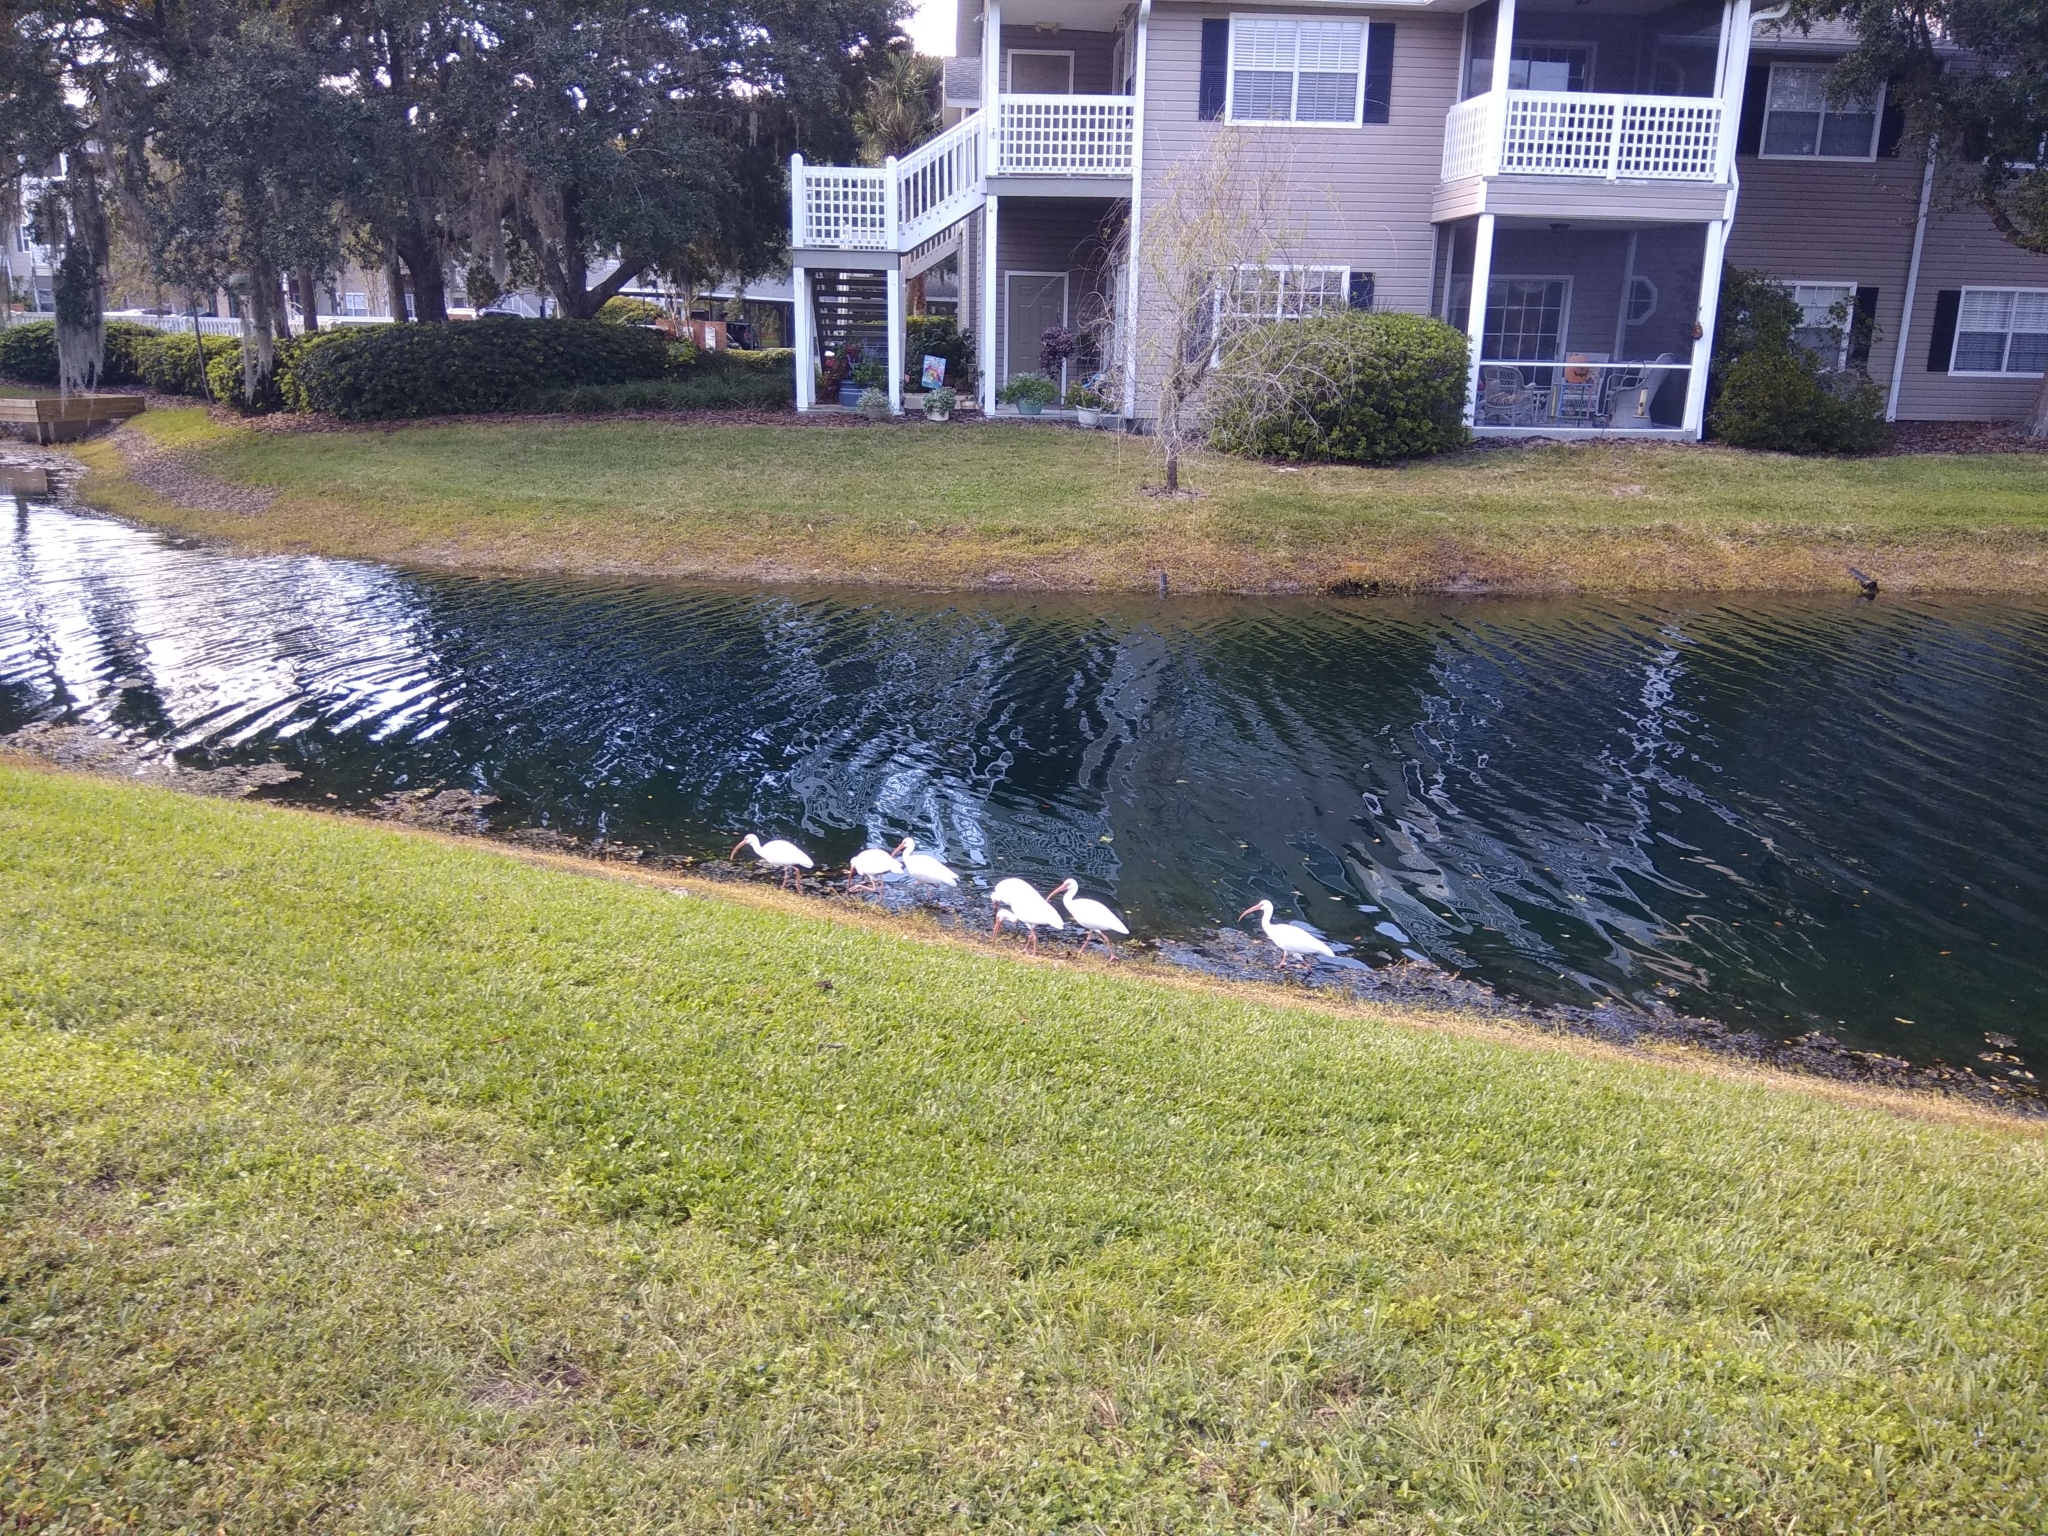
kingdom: Animalia
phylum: Chordata
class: Aves
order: Pelecaniformes
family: Threskiornithidae
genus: Eudocimus
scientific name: Eudocimus albus
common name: White ibis
